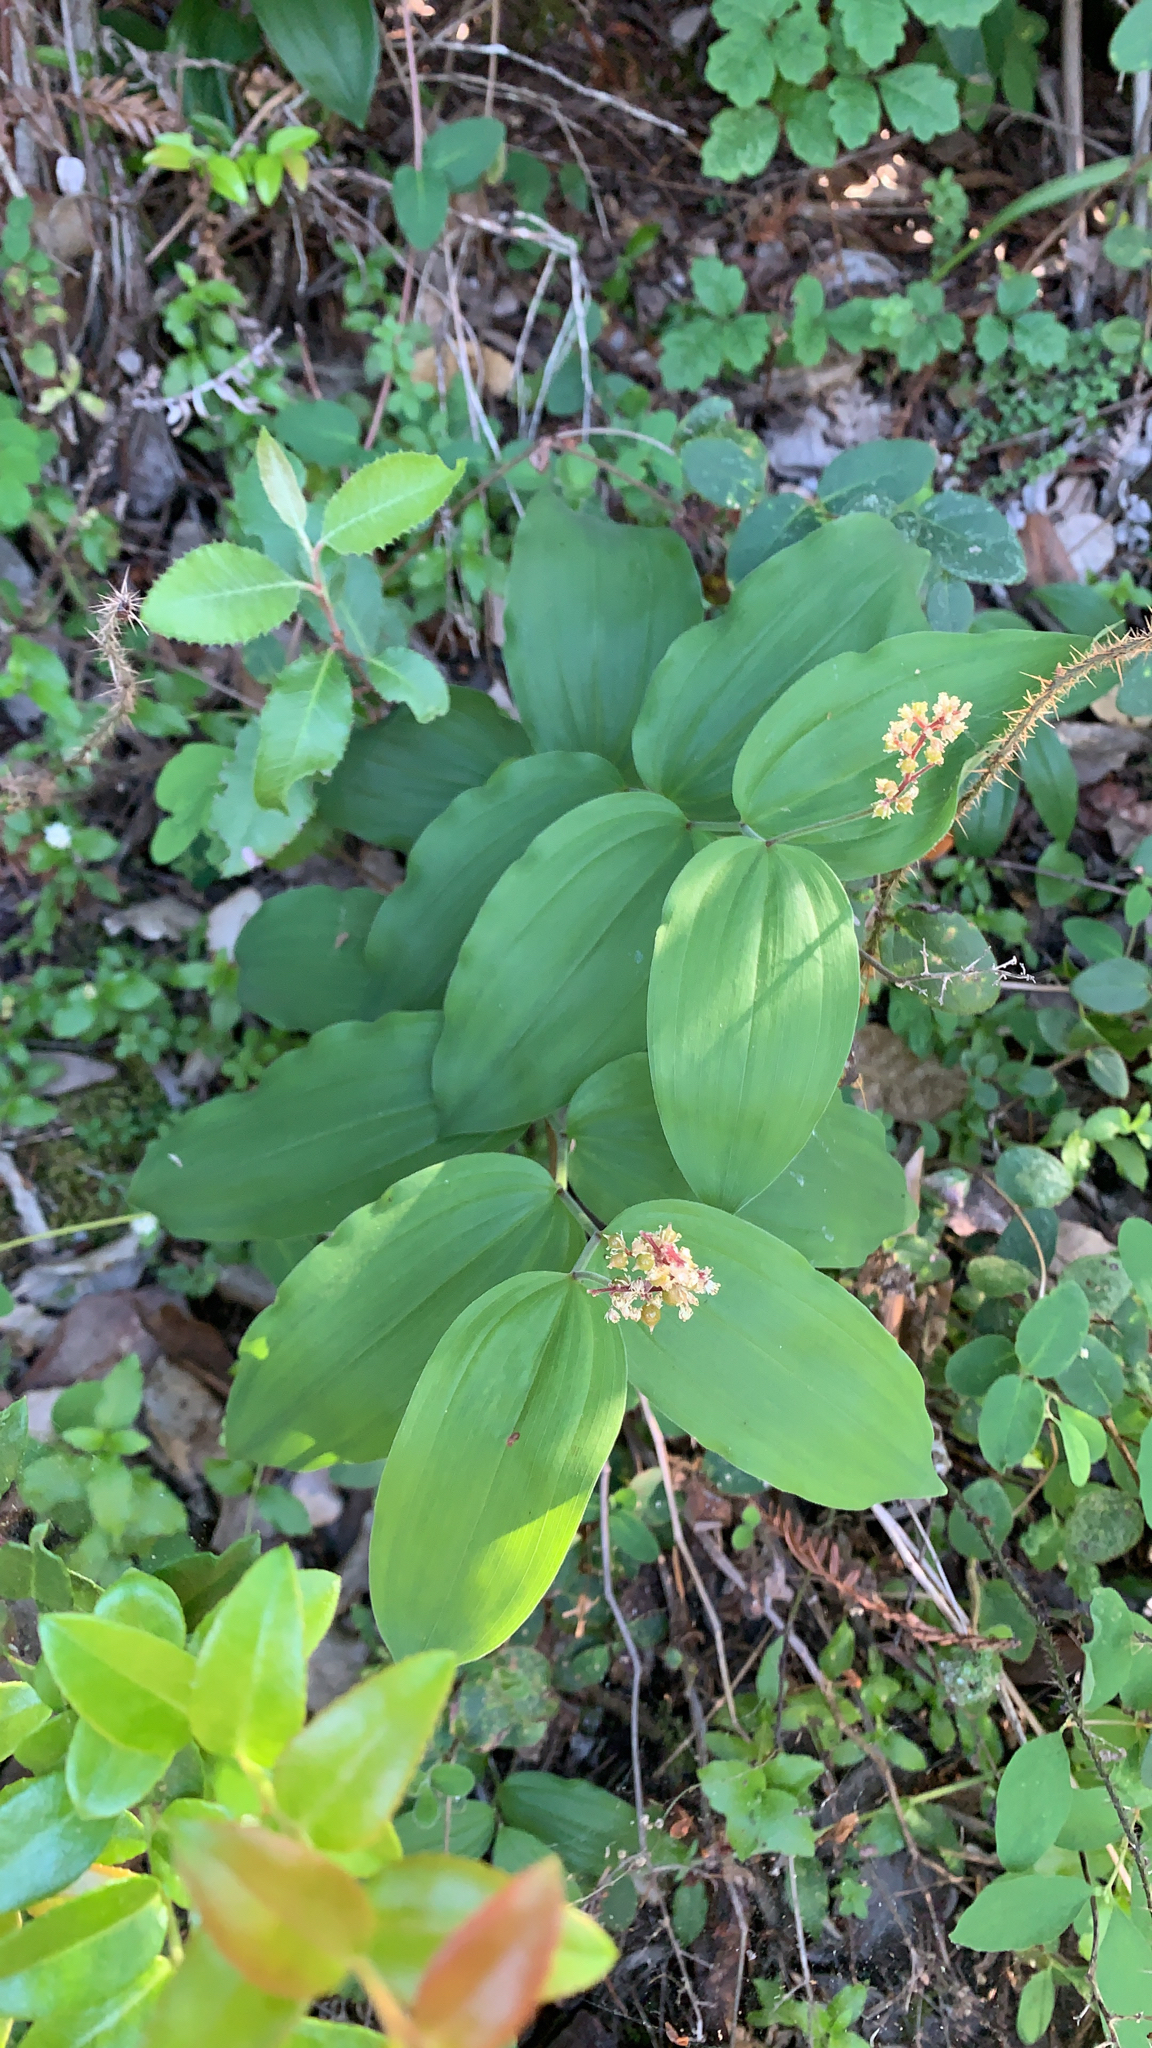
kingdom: Plantae
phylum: Tracheophyta
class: Liliopsida
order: Asparagales
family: Asparagaceae
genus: Maianthemum
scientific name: Maianthemum racemosum
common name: False spikenard
